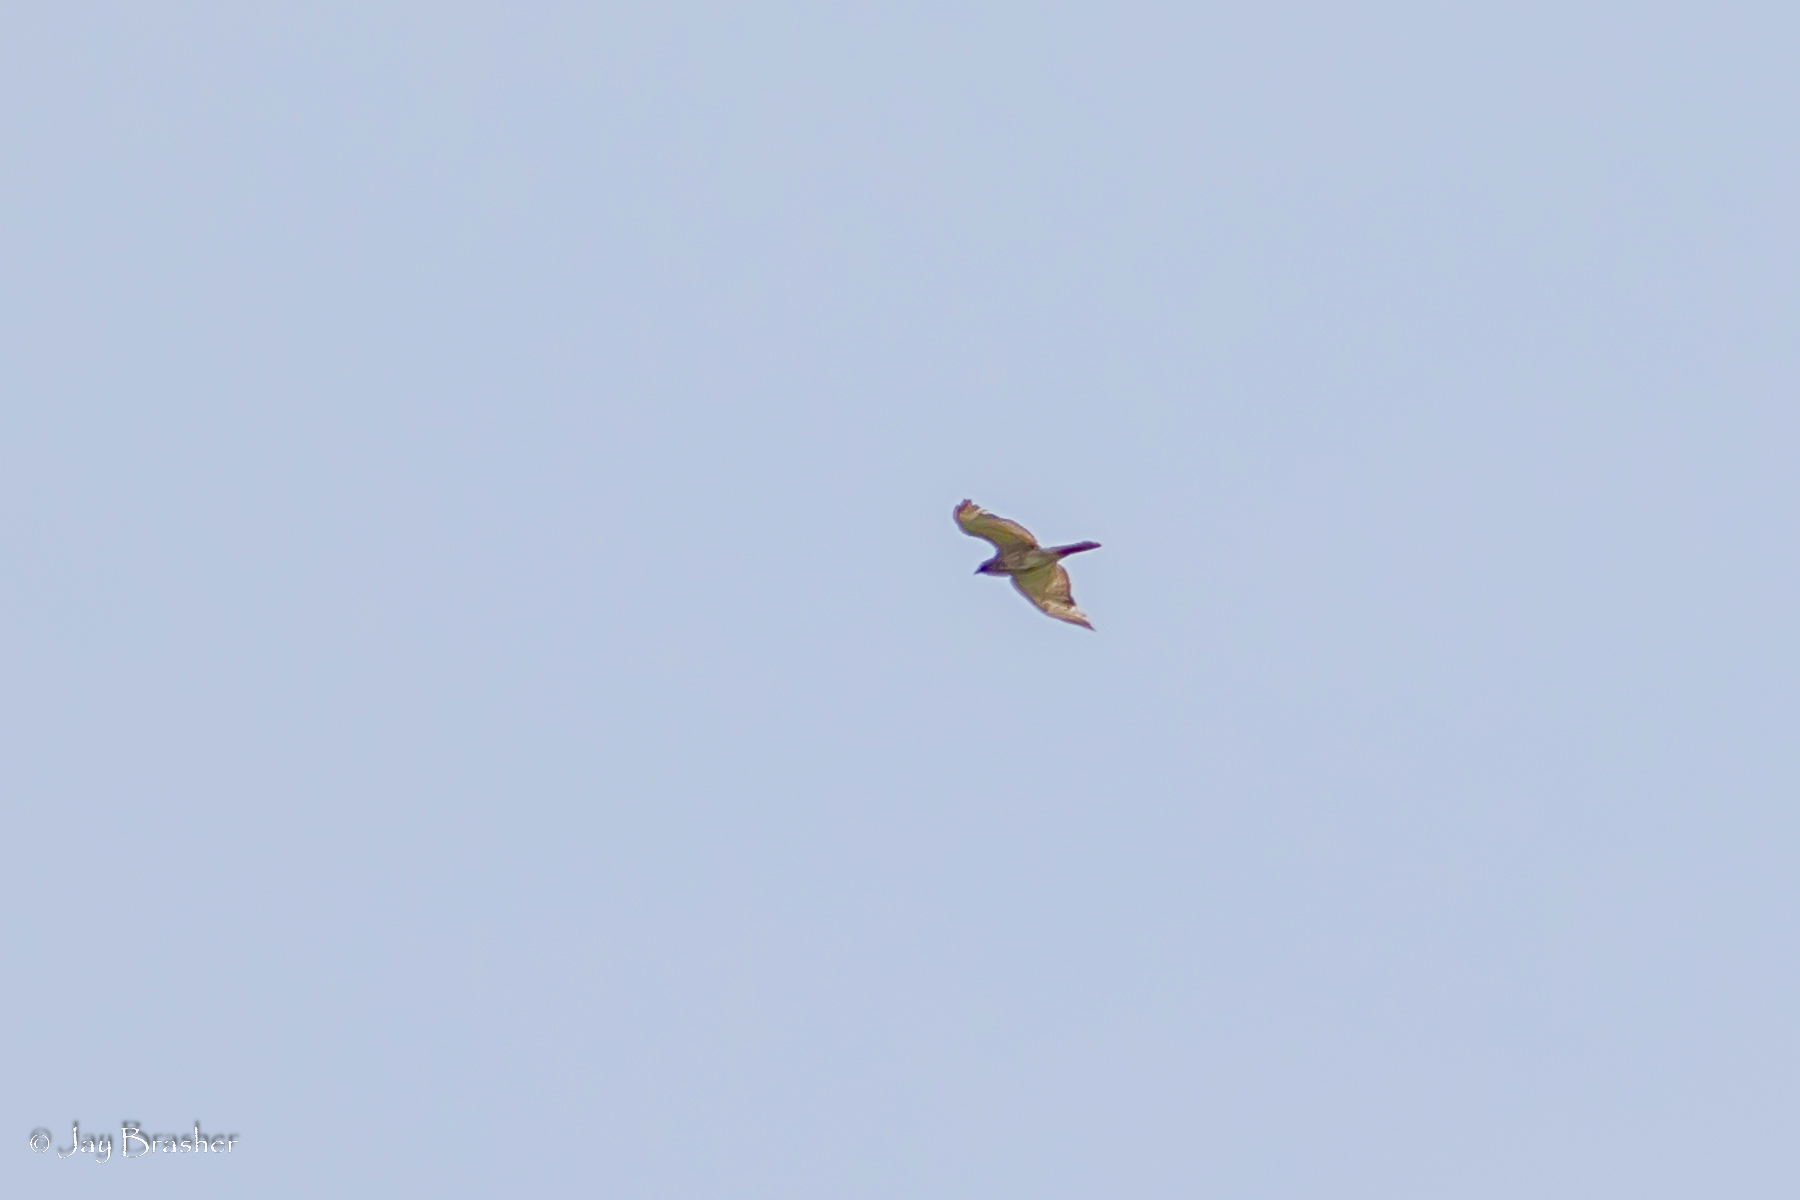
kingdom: Animalia
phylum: Chordata
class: Aves
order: Accipitriformes
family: Accipitridae
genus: Buteo
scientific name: Buteo platypterus
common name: Broad-winged hawk
